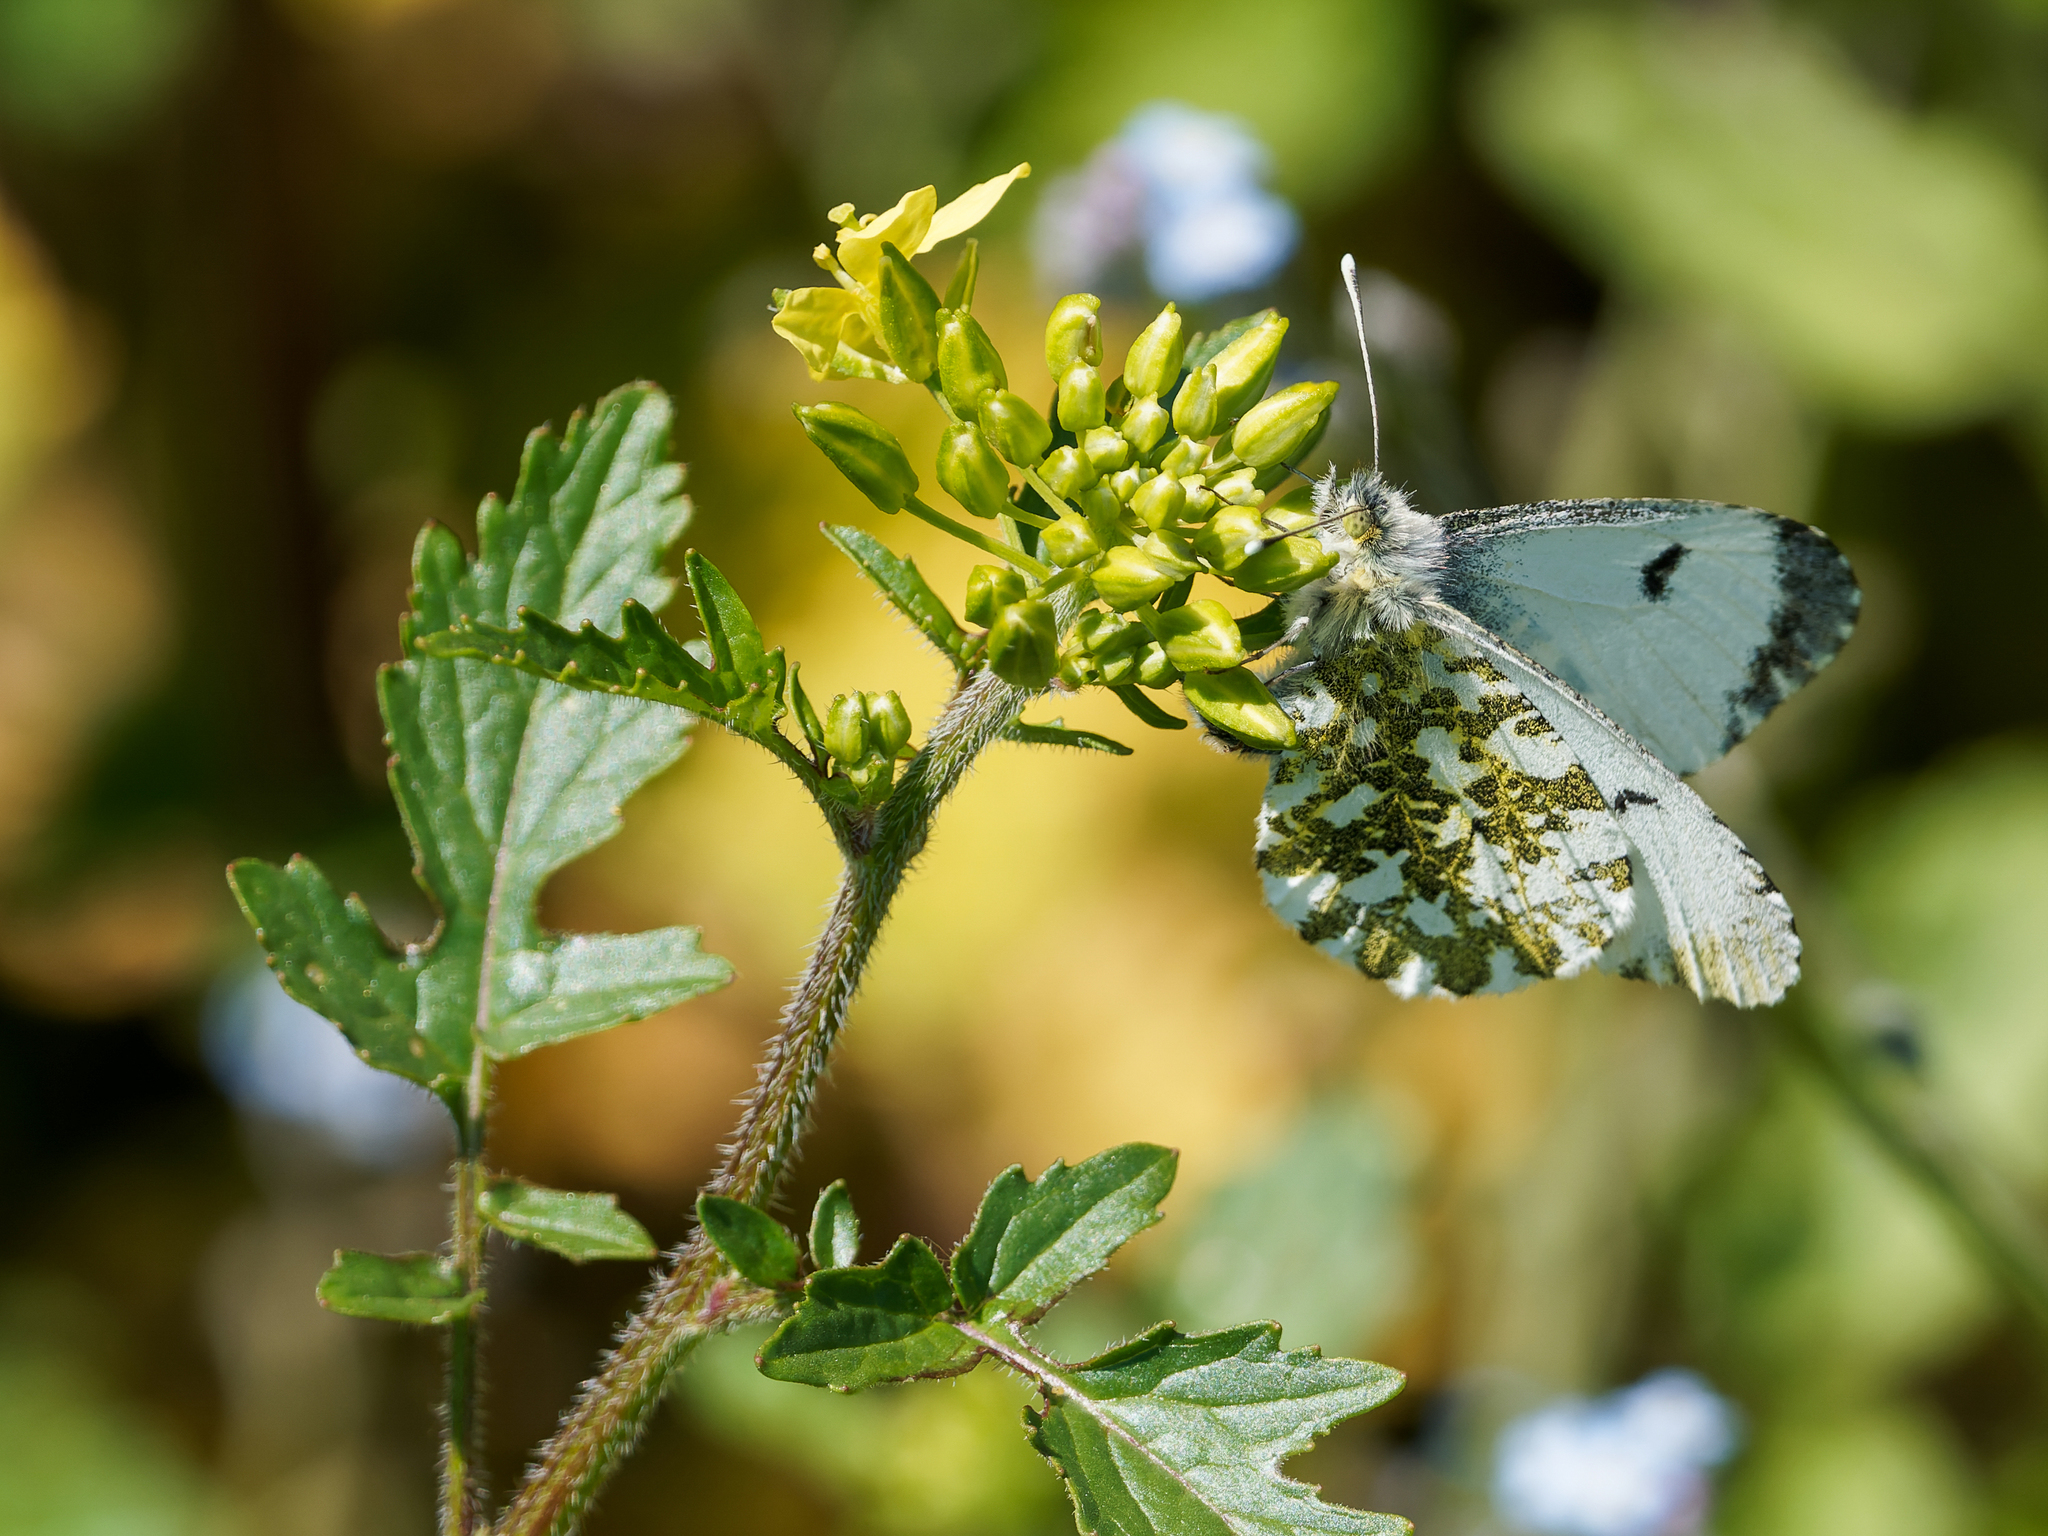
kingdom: Animalia
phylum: Arthropoda
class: Insecta
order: Lepidoptera
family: Pieridae
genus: Anthocharis
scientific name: Anthocharis cardamines
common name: Orange-tip
